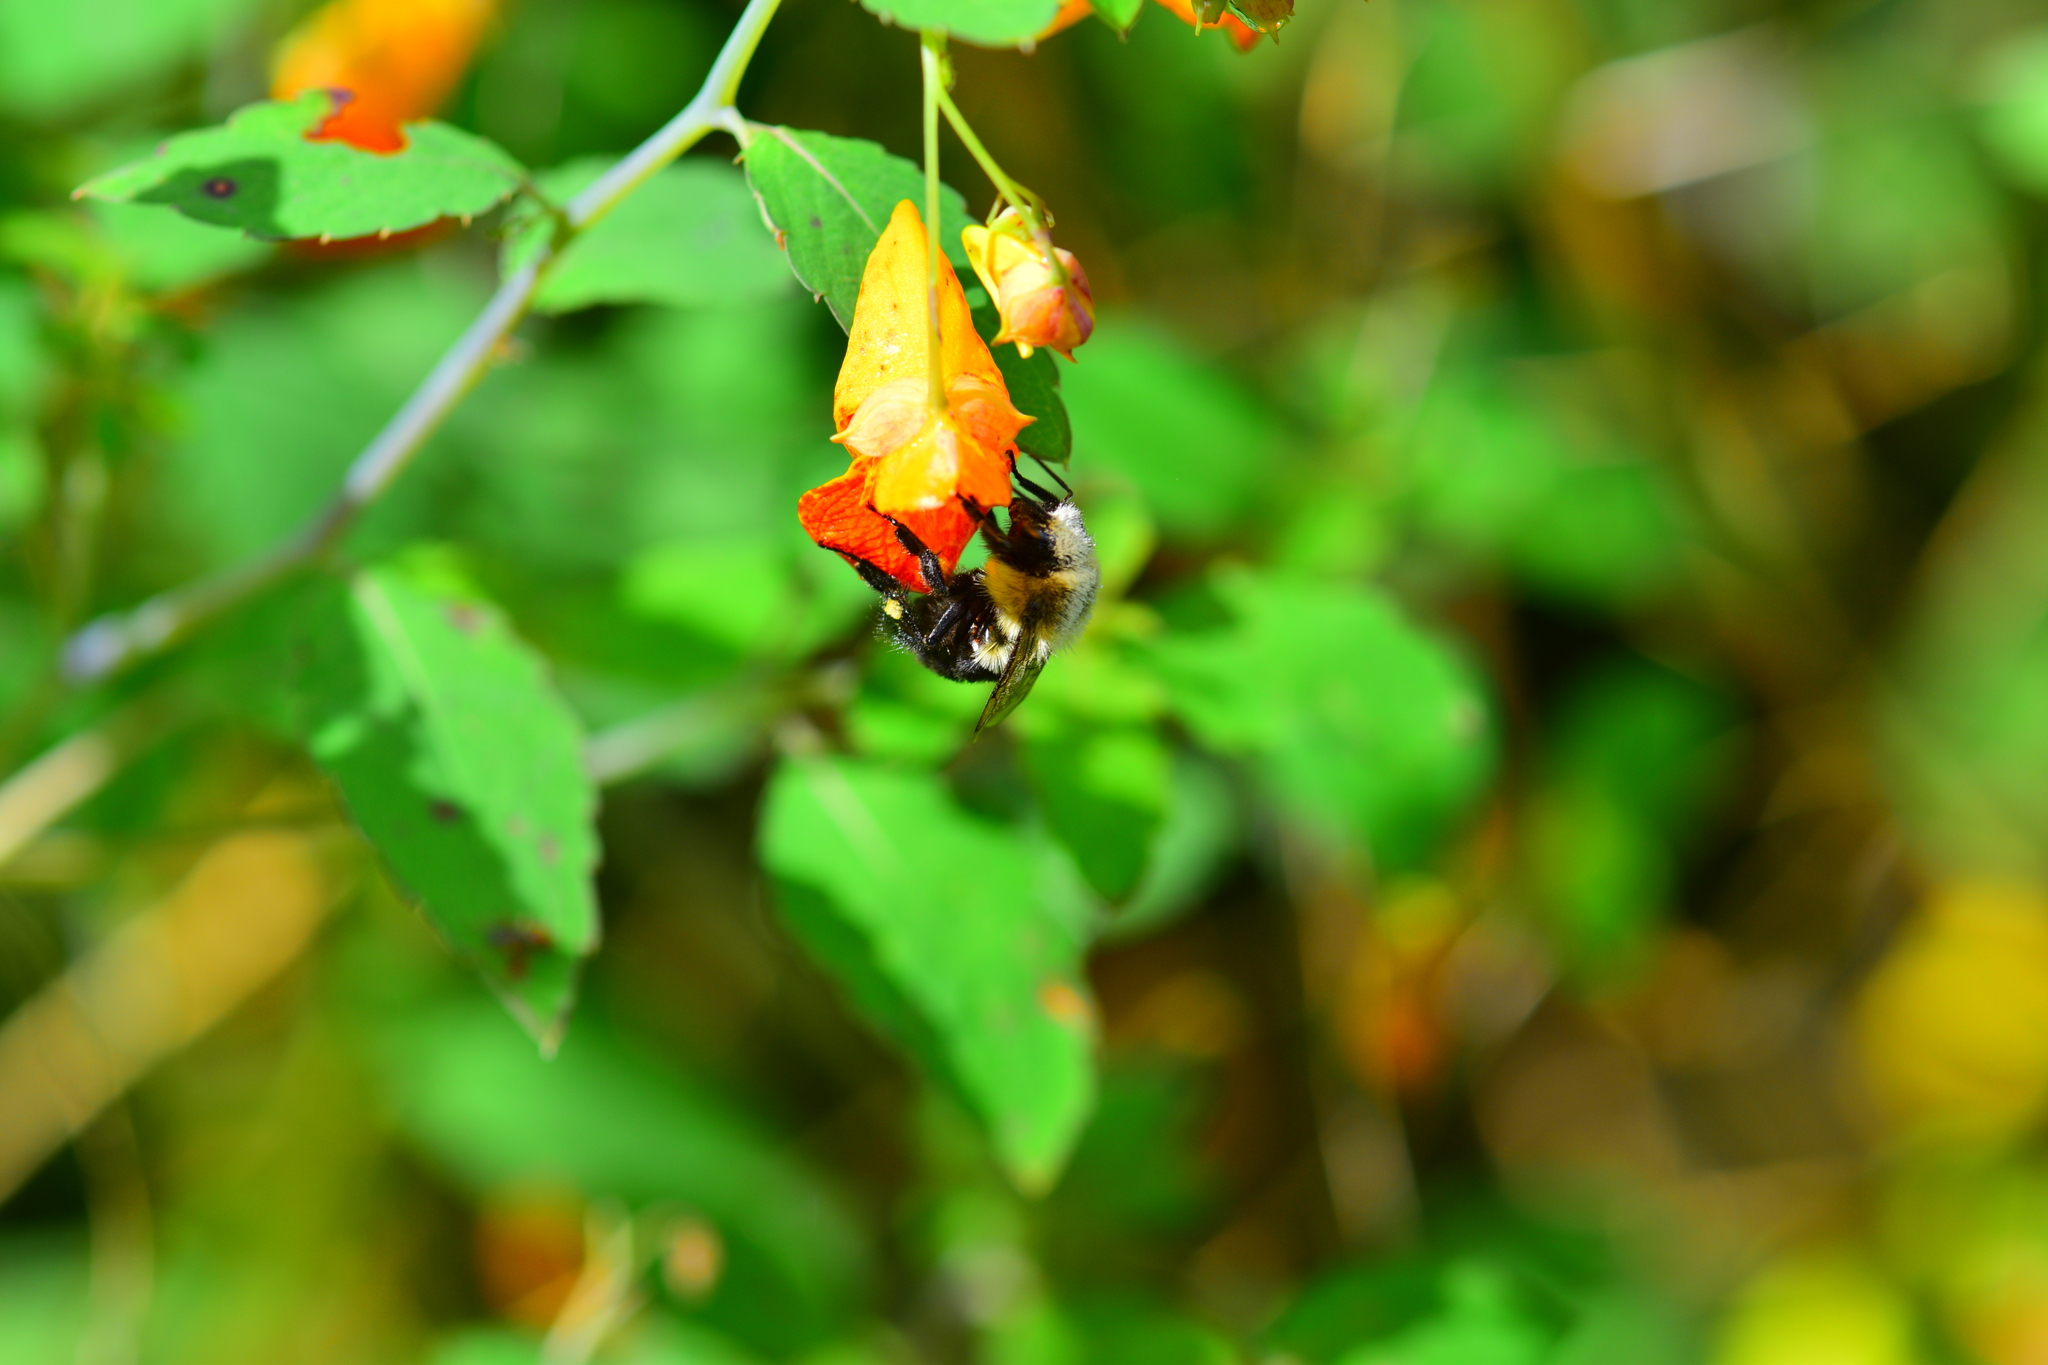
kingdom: Animalia
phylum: Arthropoda
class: Insecta
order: Hymenoptera
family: Apidae
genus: Bombus
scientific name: Bombus impatiens
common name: Common eastern bumble bee
